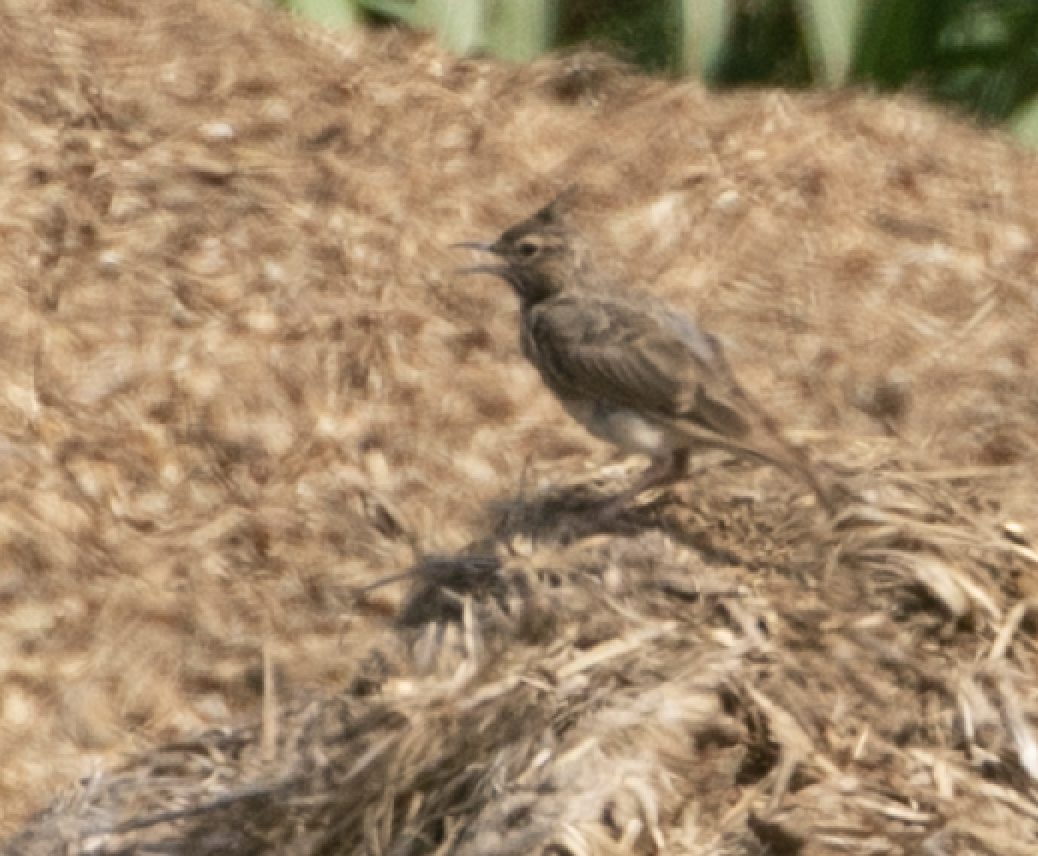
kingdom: Animalia
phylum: Chordata
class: Aves
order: Passeriformes
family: Alaudidae
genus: Galerida
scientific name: Galerida cristata
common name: Crested lark
